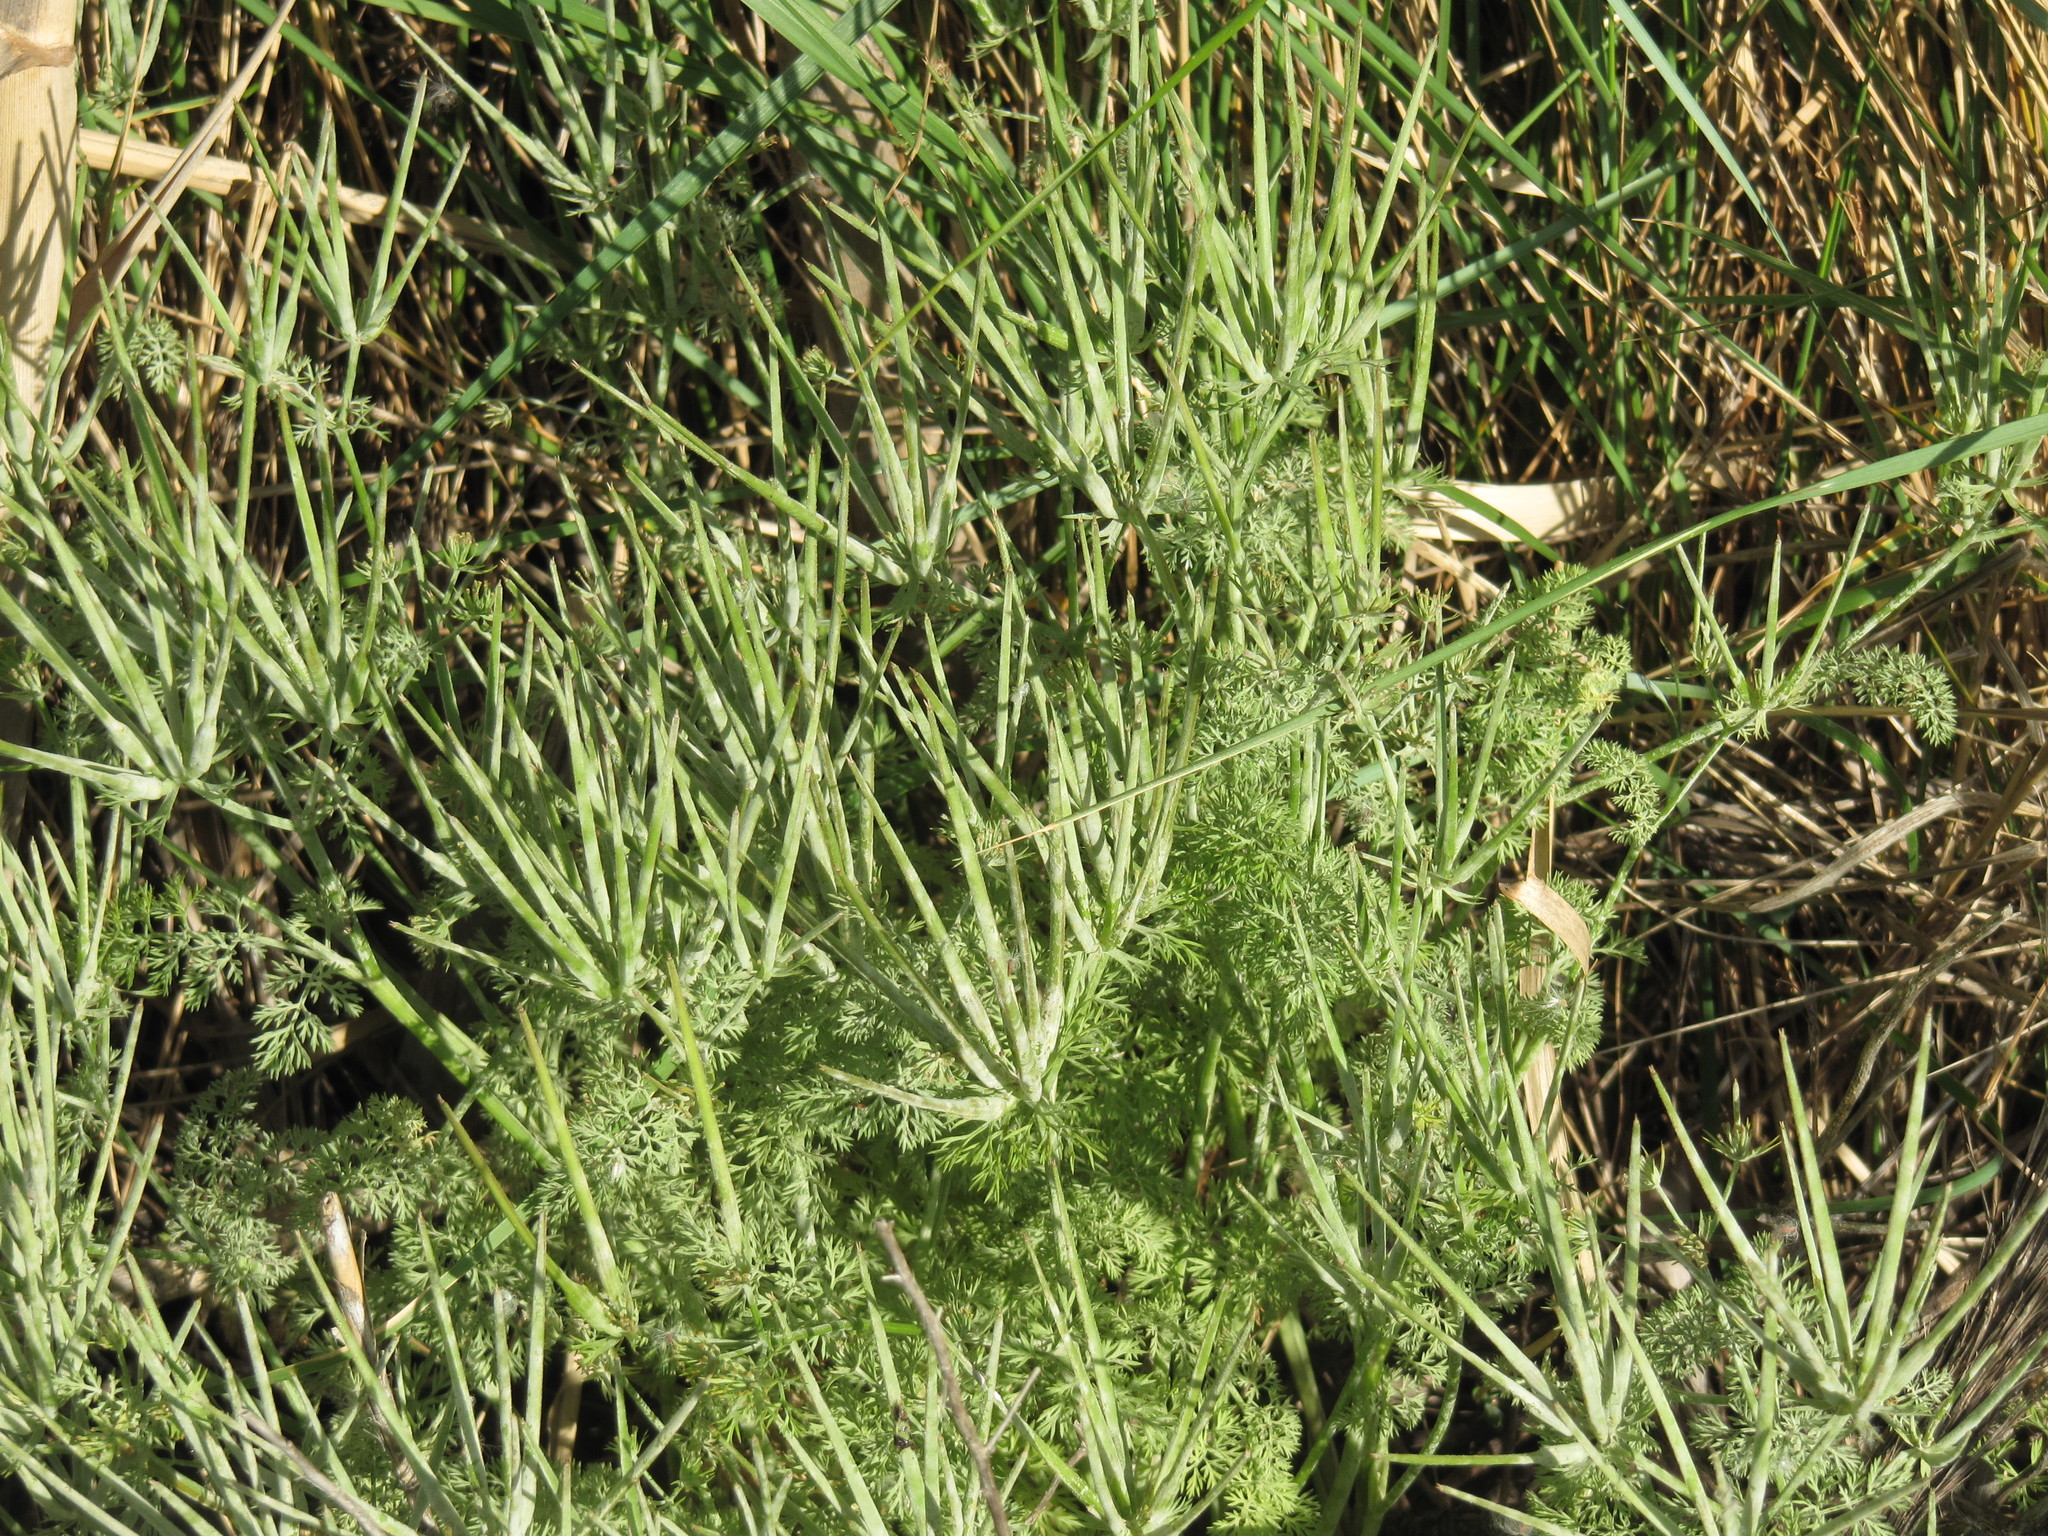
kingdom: Plantae
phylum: Tracheophyta
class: Magnoliopsida
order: Apiales
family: Apiaceae
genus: Scandix
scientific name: Scandix pecten-veneris
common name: Shepherd's-needle
